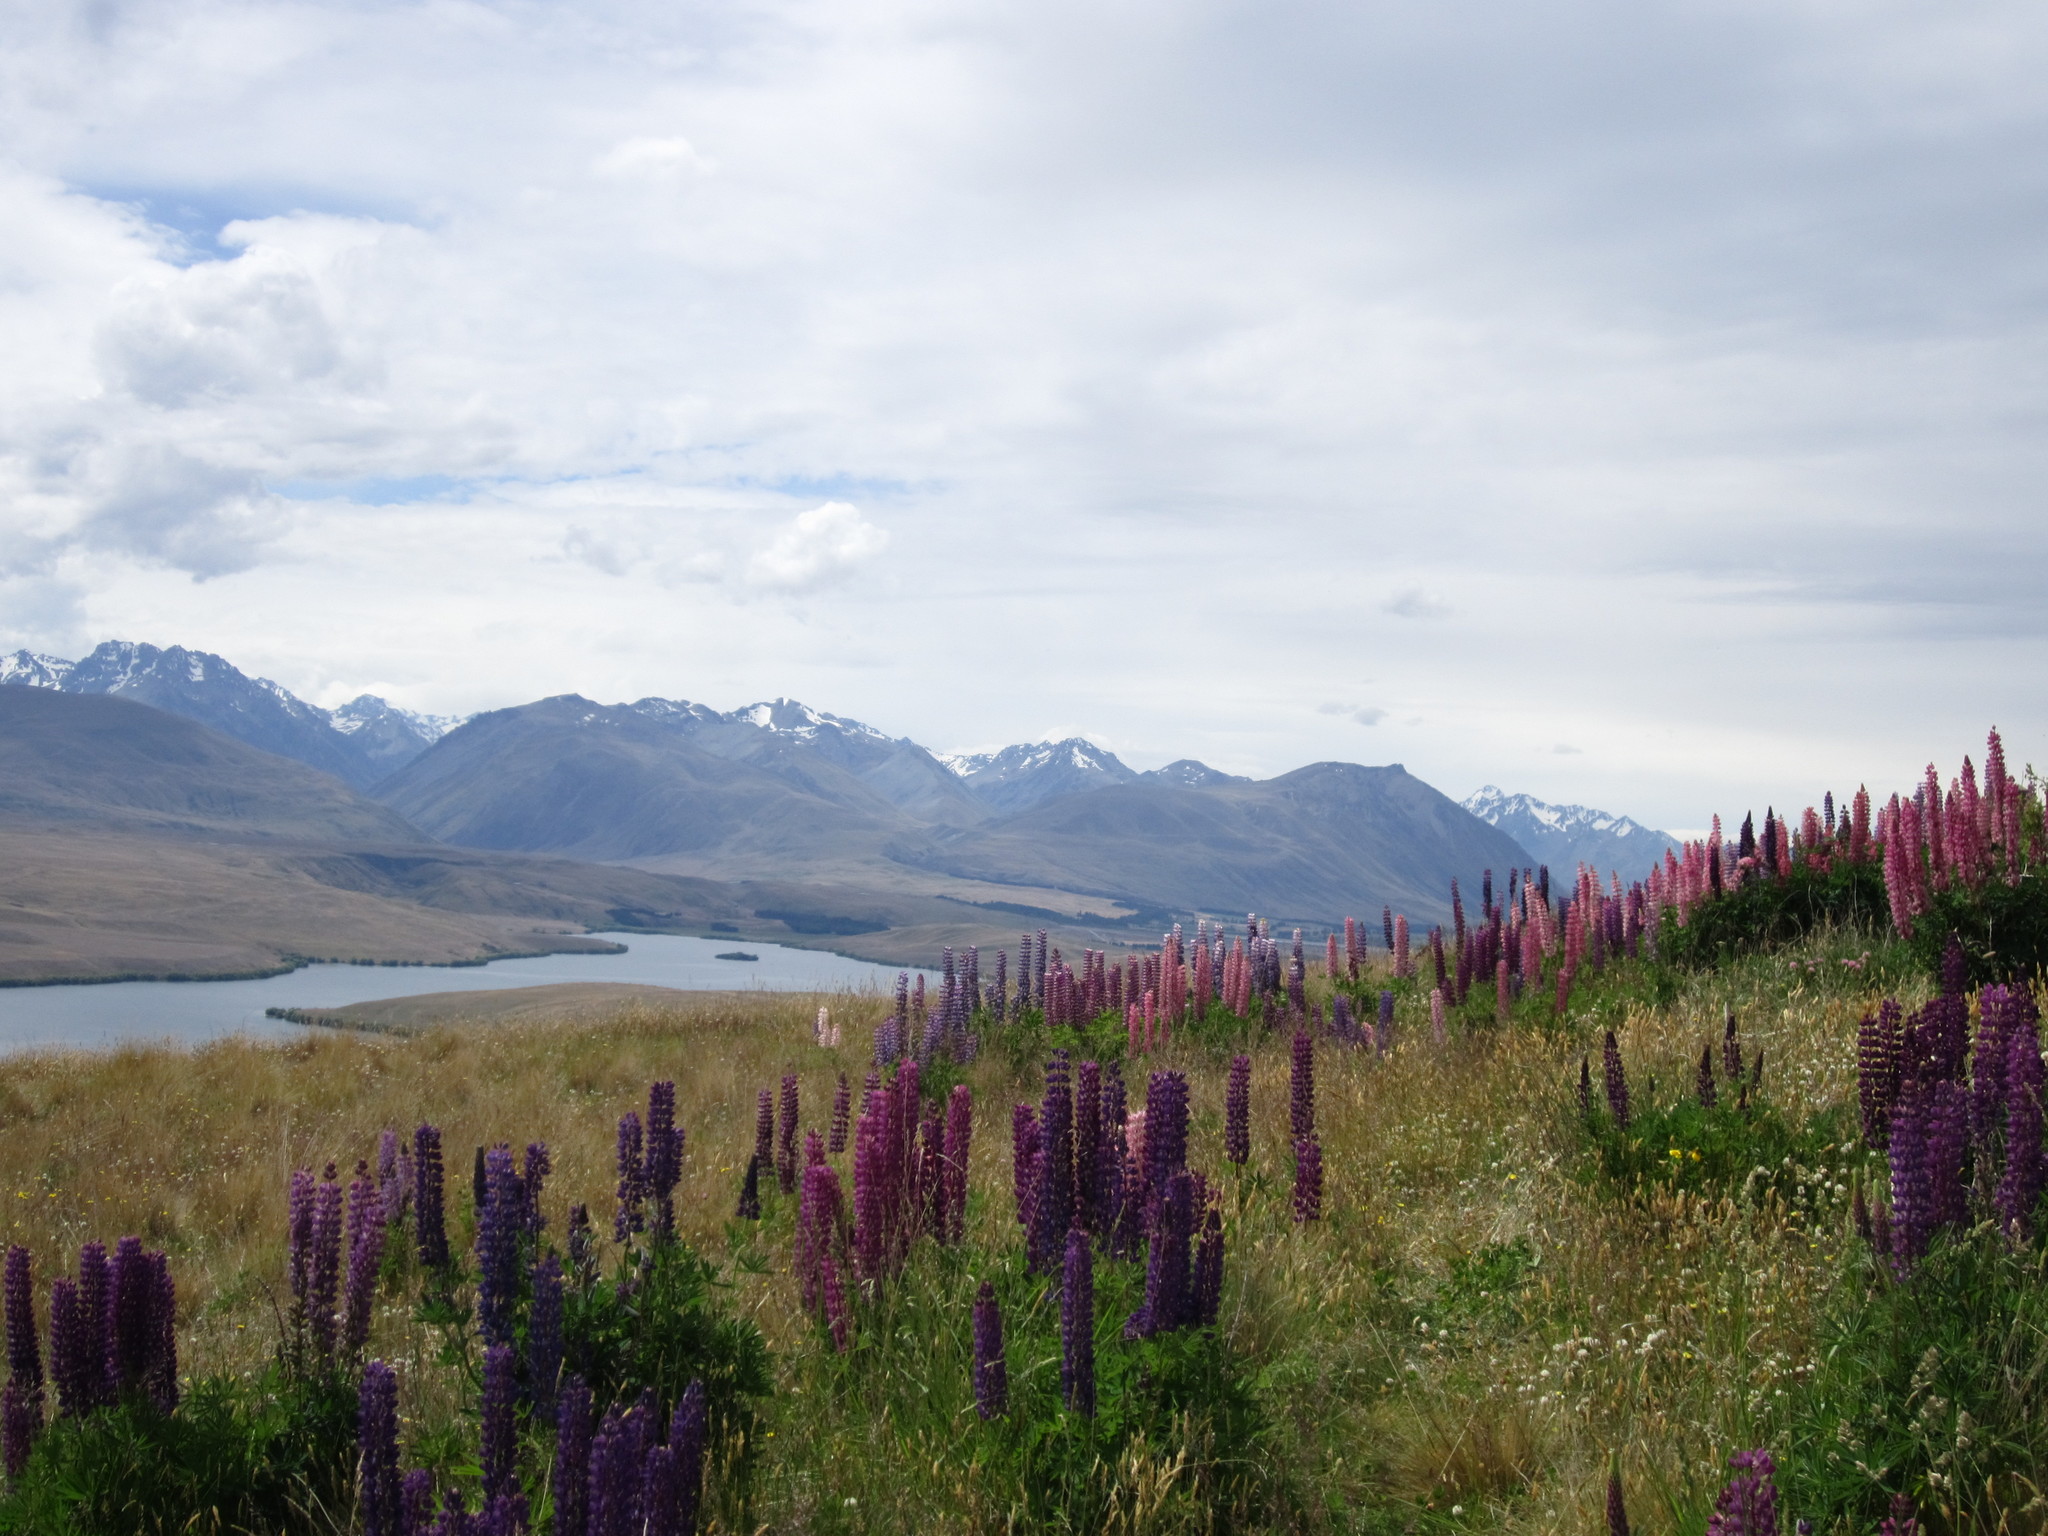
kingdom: Plantae
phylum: Tracheophyta
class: Magnoliopsida
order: Fabales
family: Fabaceae
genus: Lupinus
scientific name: Lupinus polyphyllus
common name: Garden lupin
